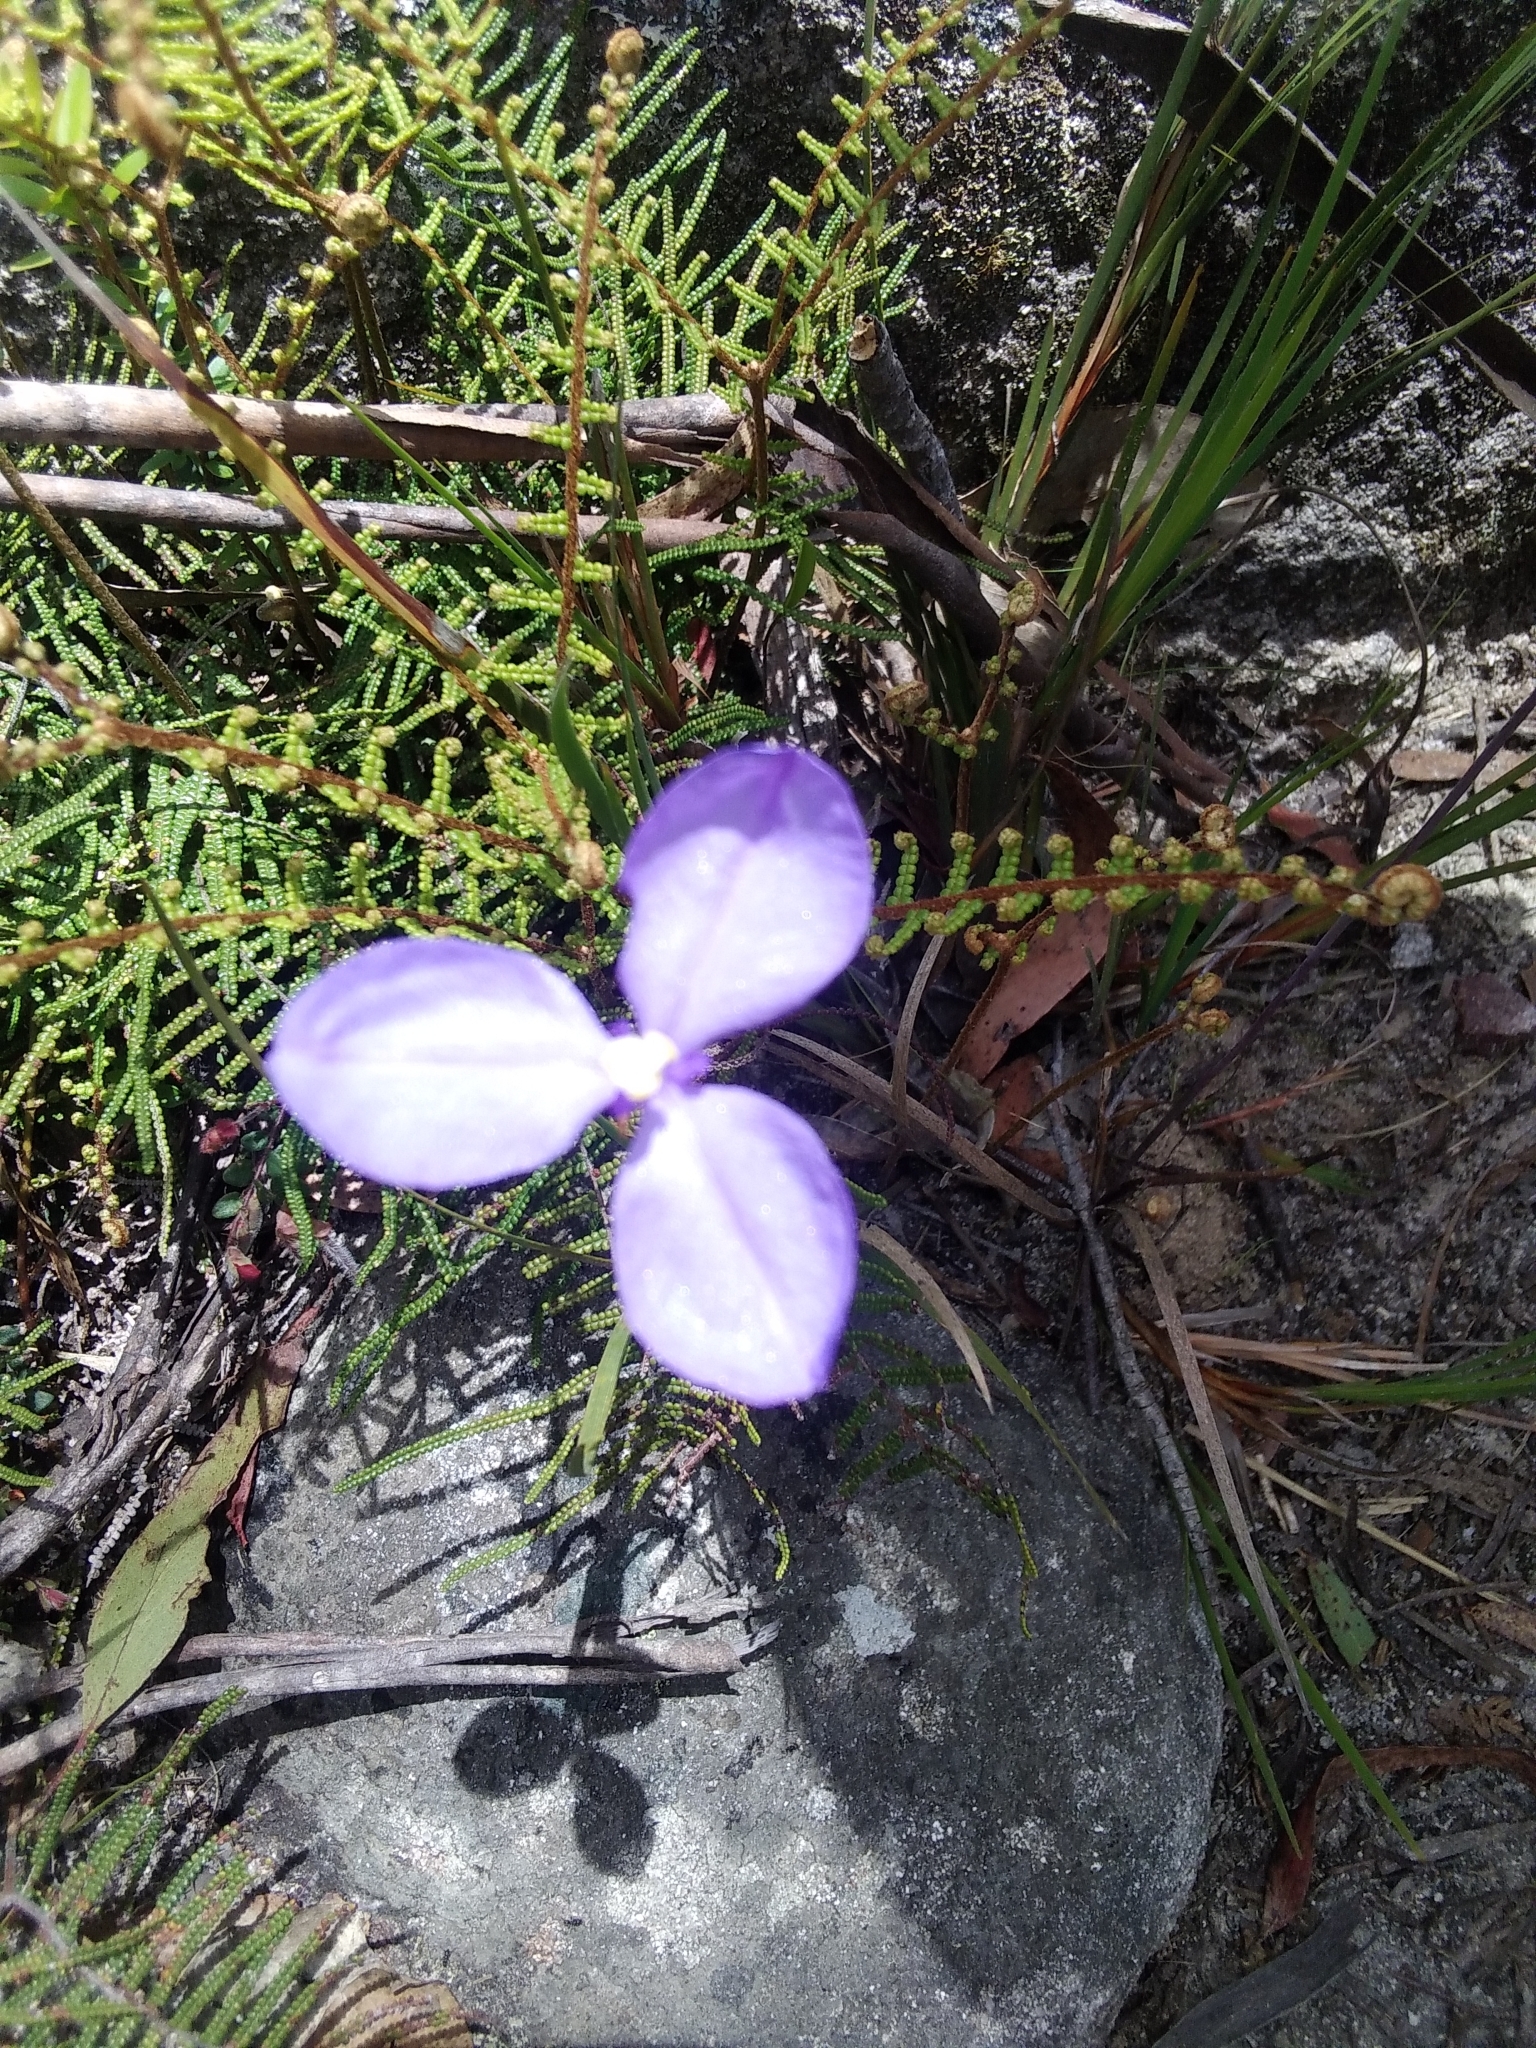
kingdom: Plantae
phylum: Tracheophyta
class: Liliopsida
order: Asparagales
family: Iridaceae
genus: Patersonia
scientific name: Patersonia sericea
